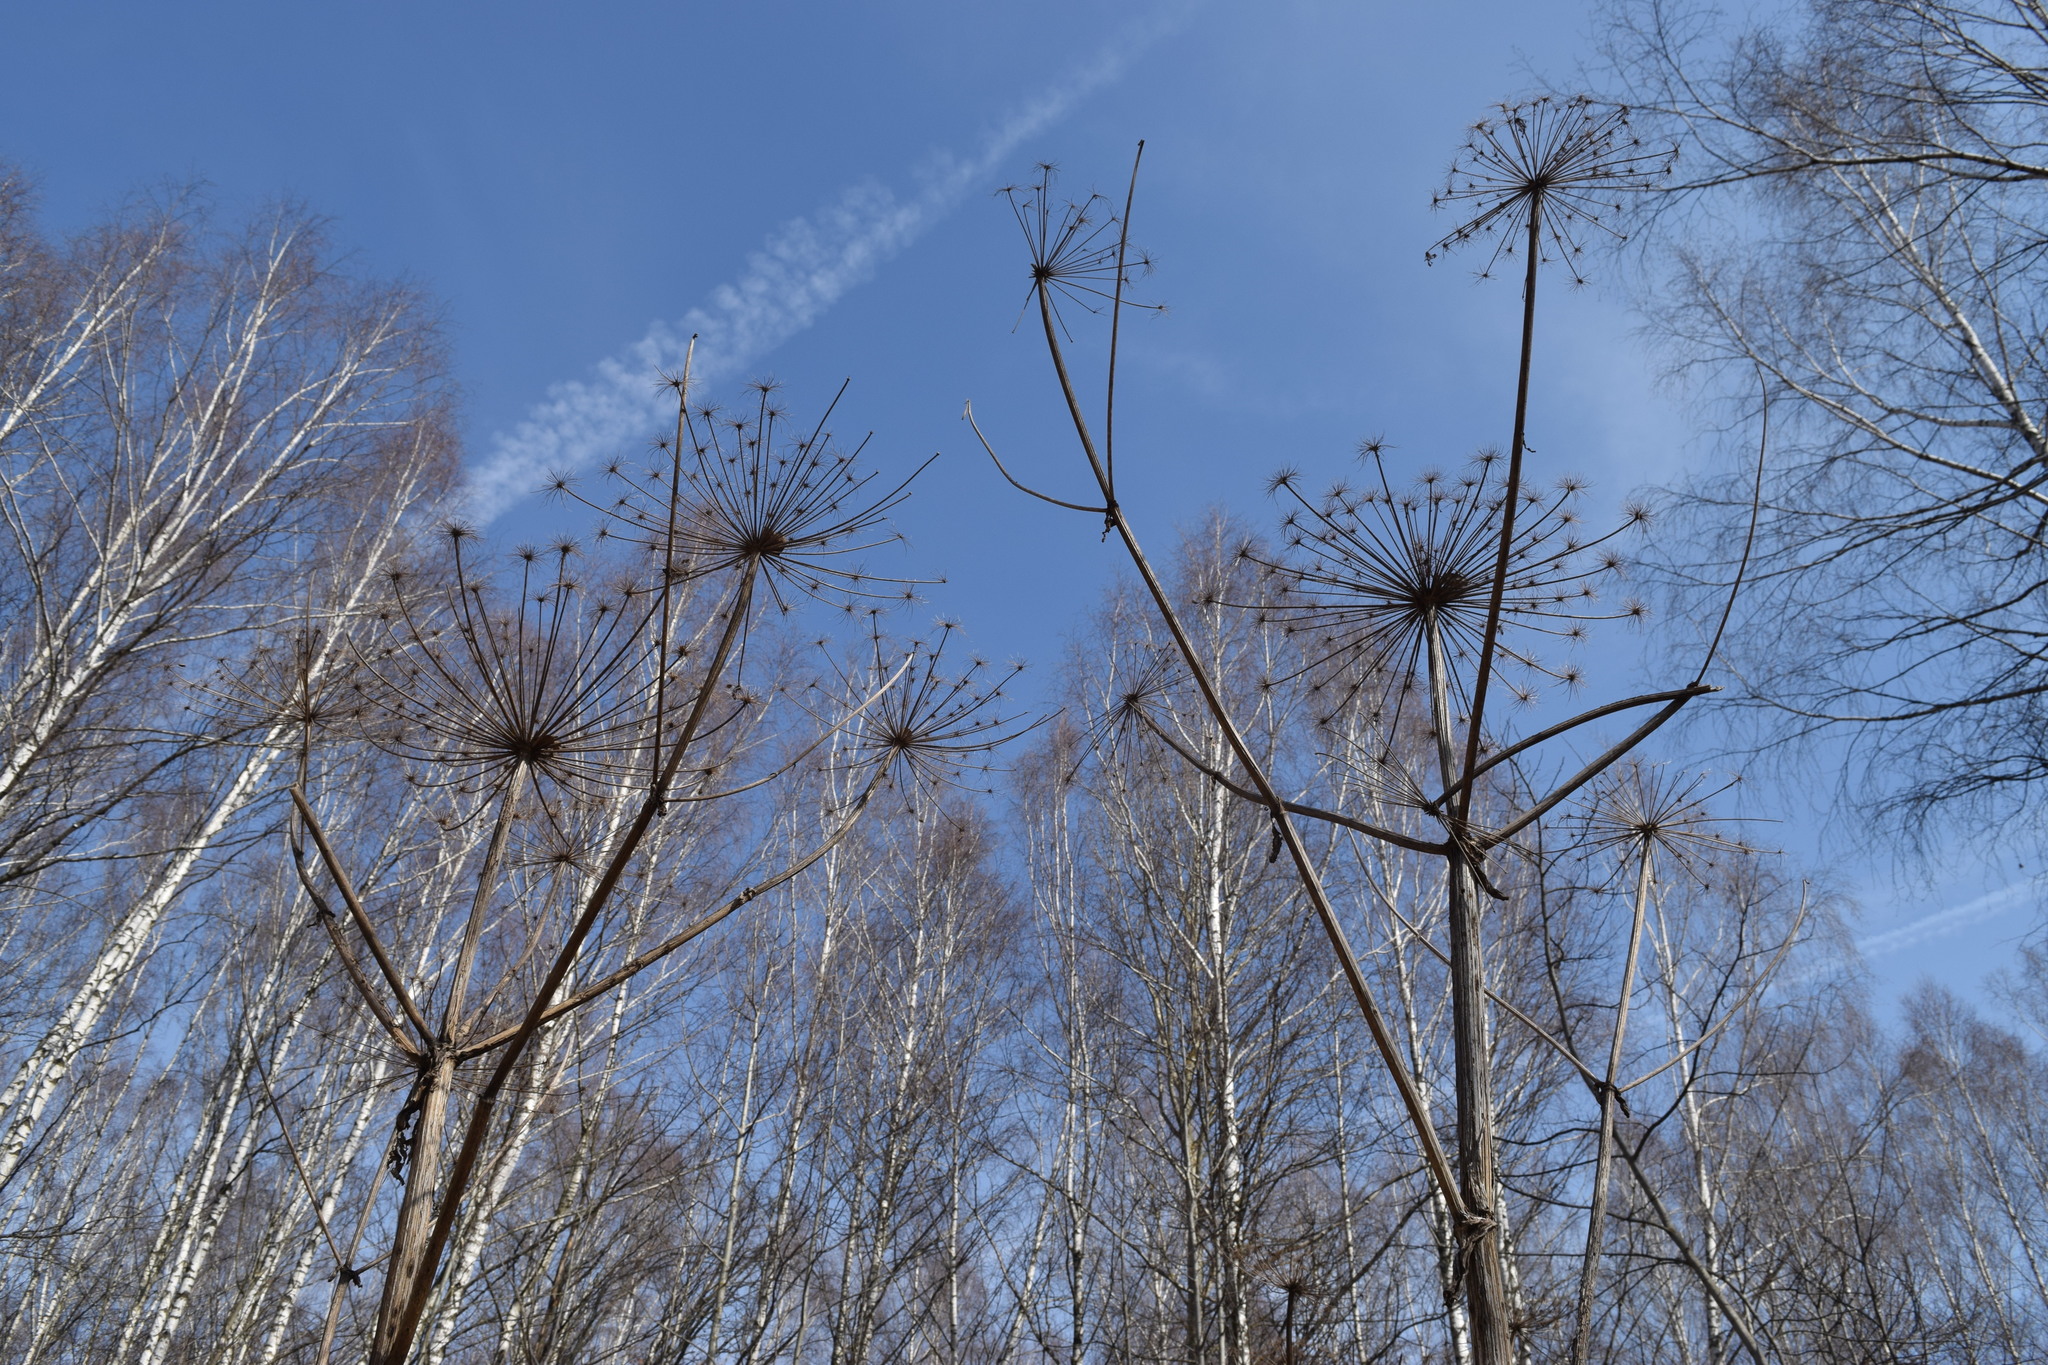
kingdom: Plantae
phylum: Tracheophyta
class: Magnoliopsida
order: Apiales
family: Apiaceae
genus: Heracleum
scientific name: Heracleum sosnowskyi
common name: Sosnowsky's hogweed
